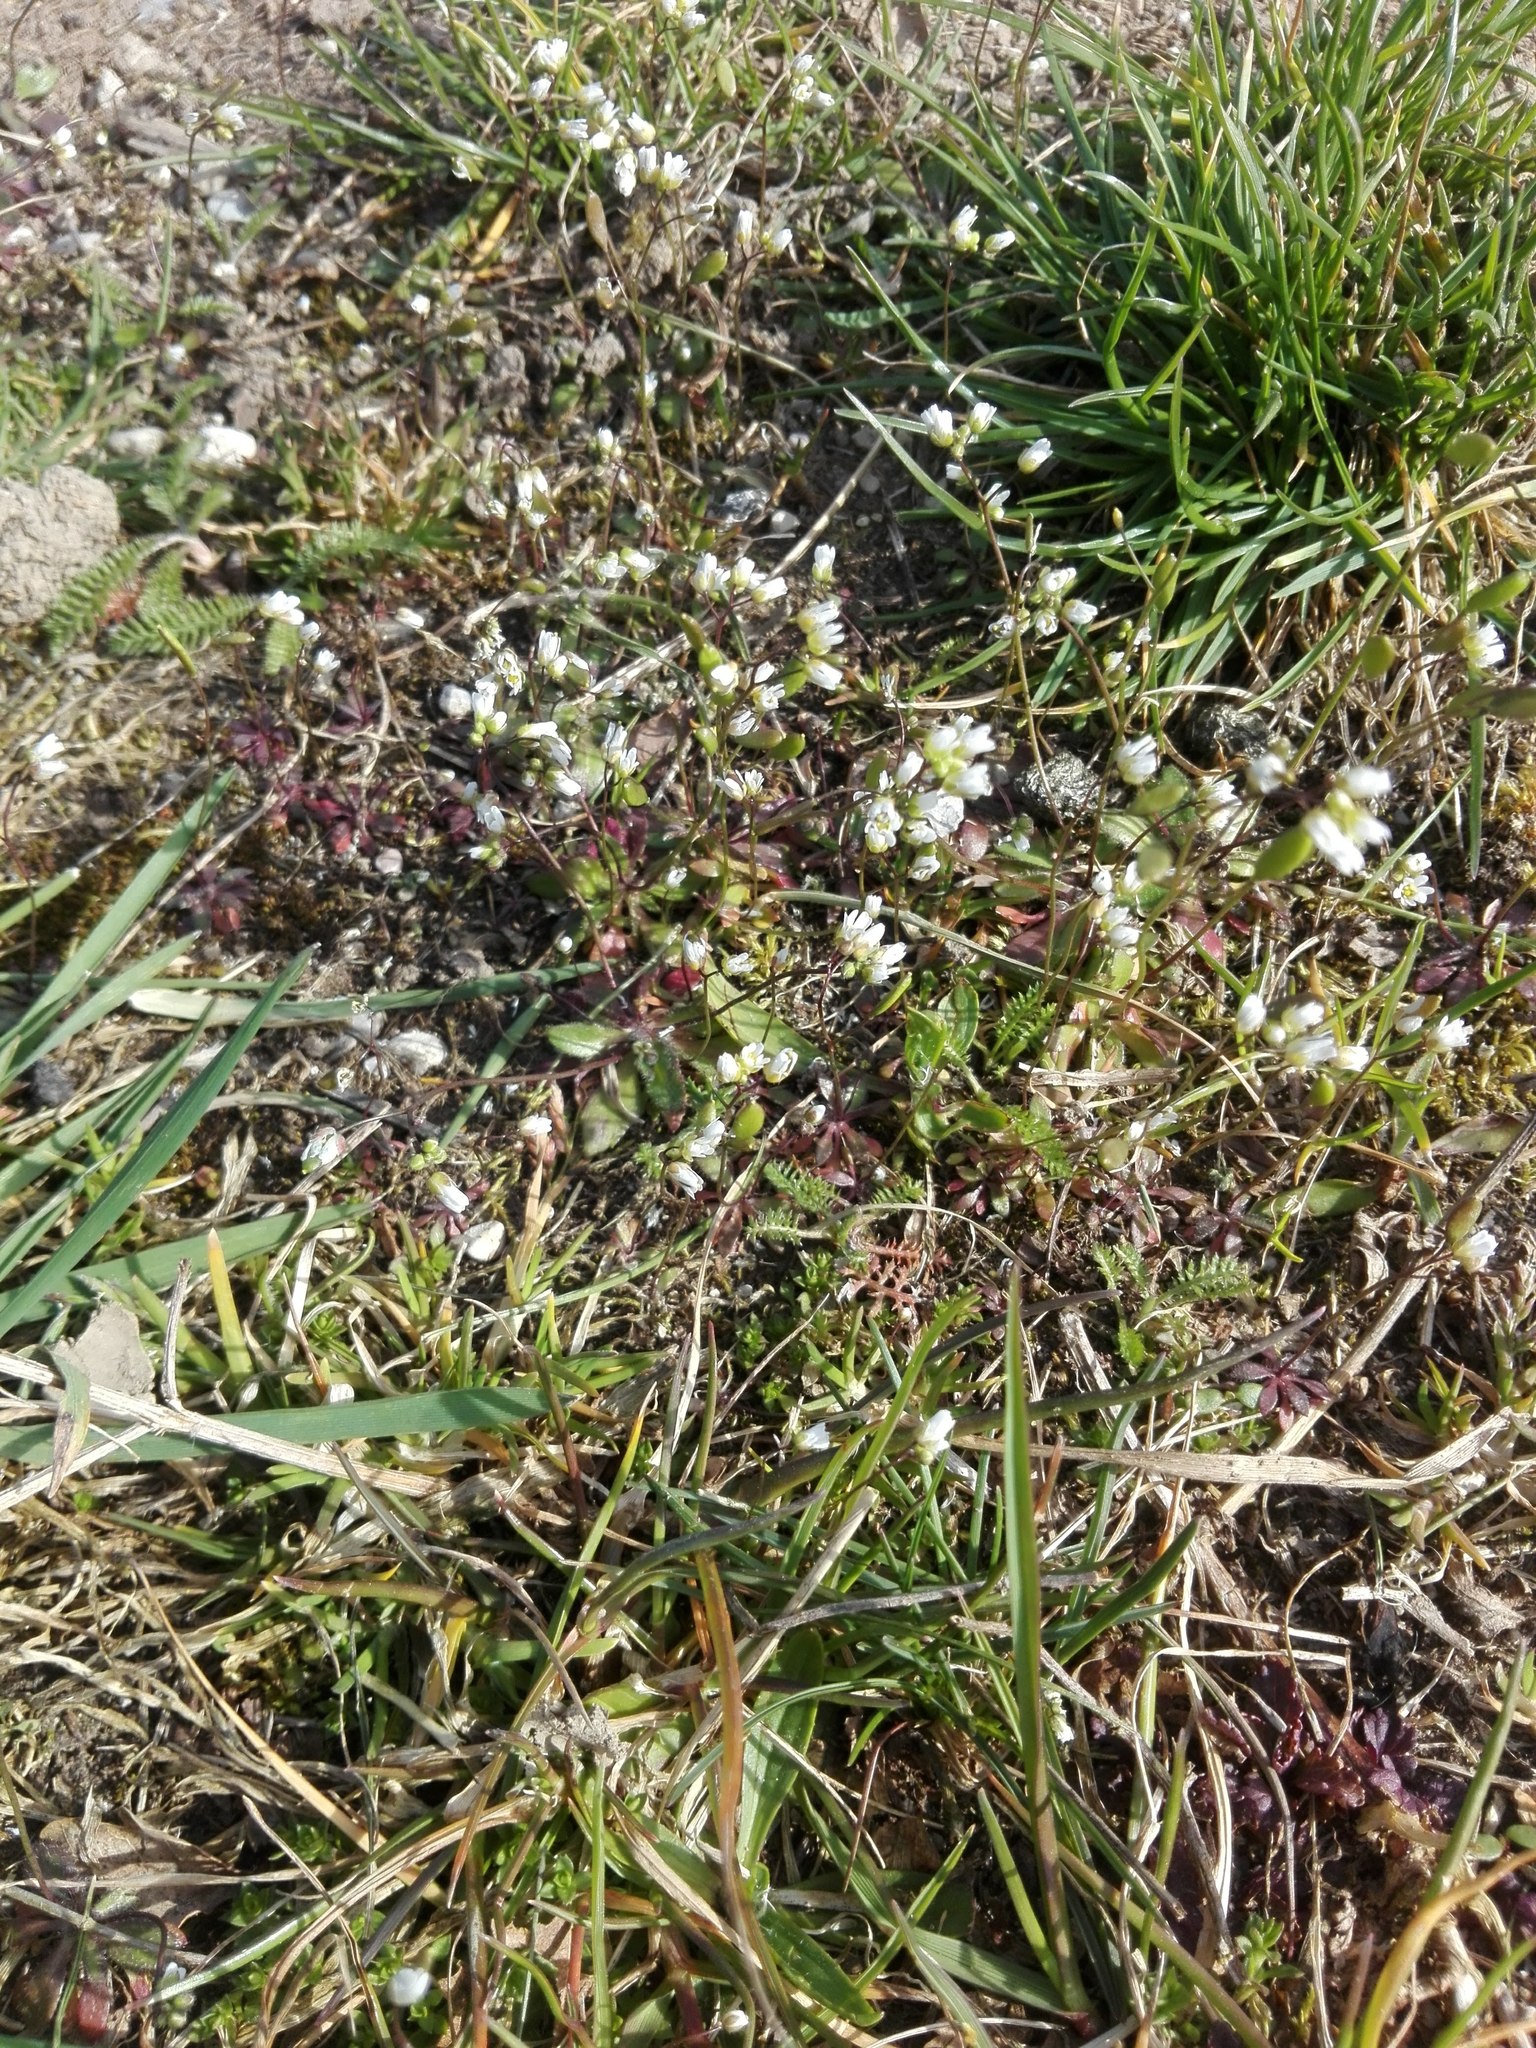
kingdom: Plantae
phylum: Tracheophyta
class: Magnoliopsida
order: Brassicales
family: Brassicaceae
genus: Draba
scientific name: Draba verna
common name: Spring draba
